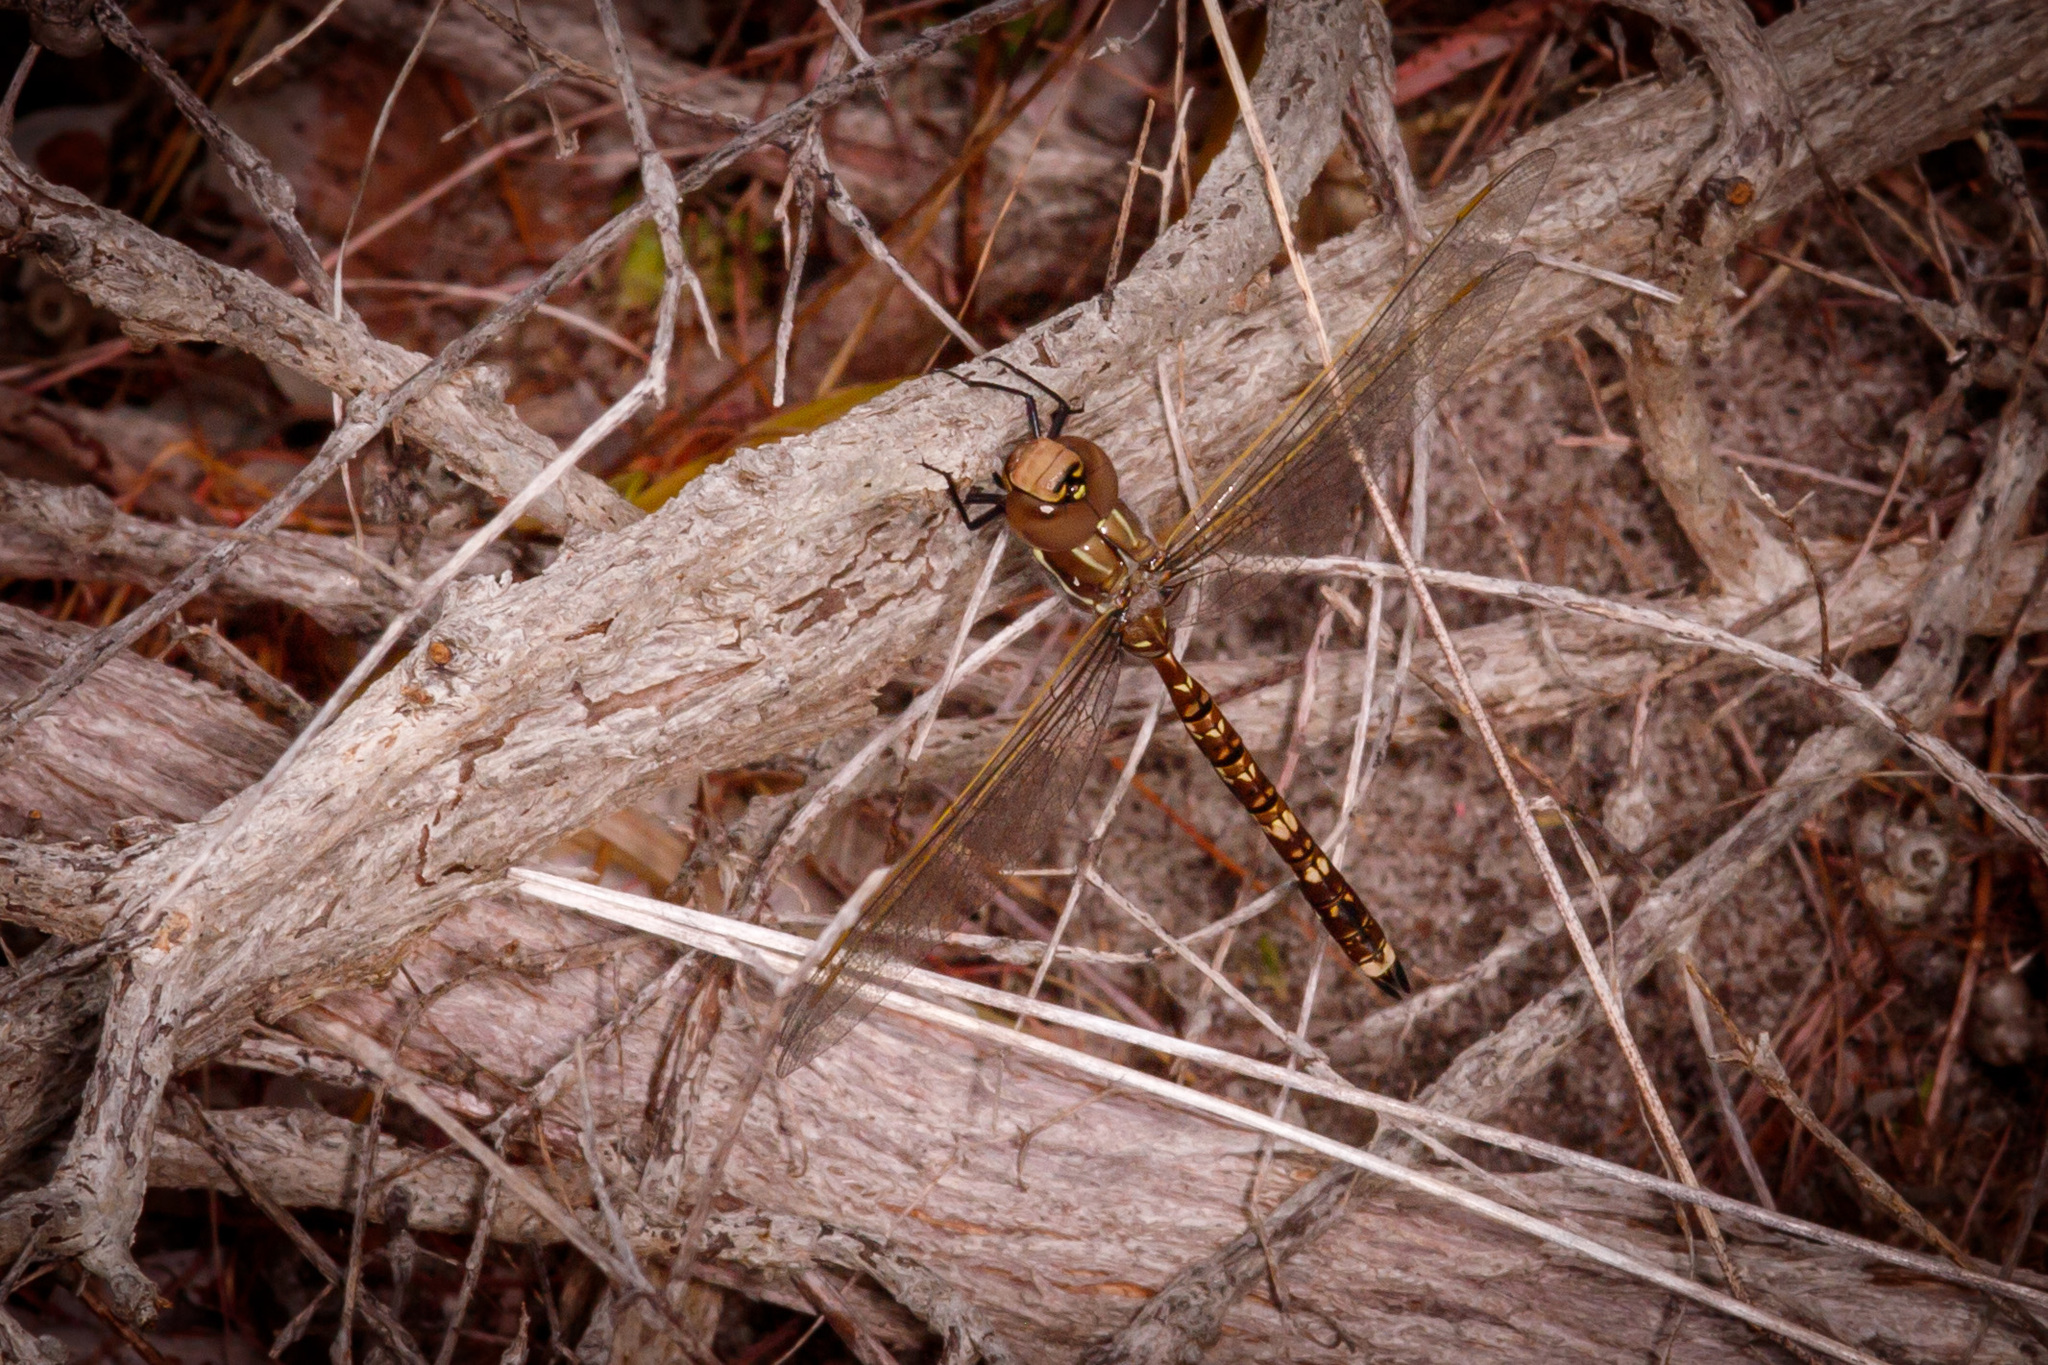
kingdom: Animalia
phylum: Arthropoda
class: Insecta
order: Odonata
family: Aeshnidae
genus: Aeshna
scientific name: Aeshna brevistyla
